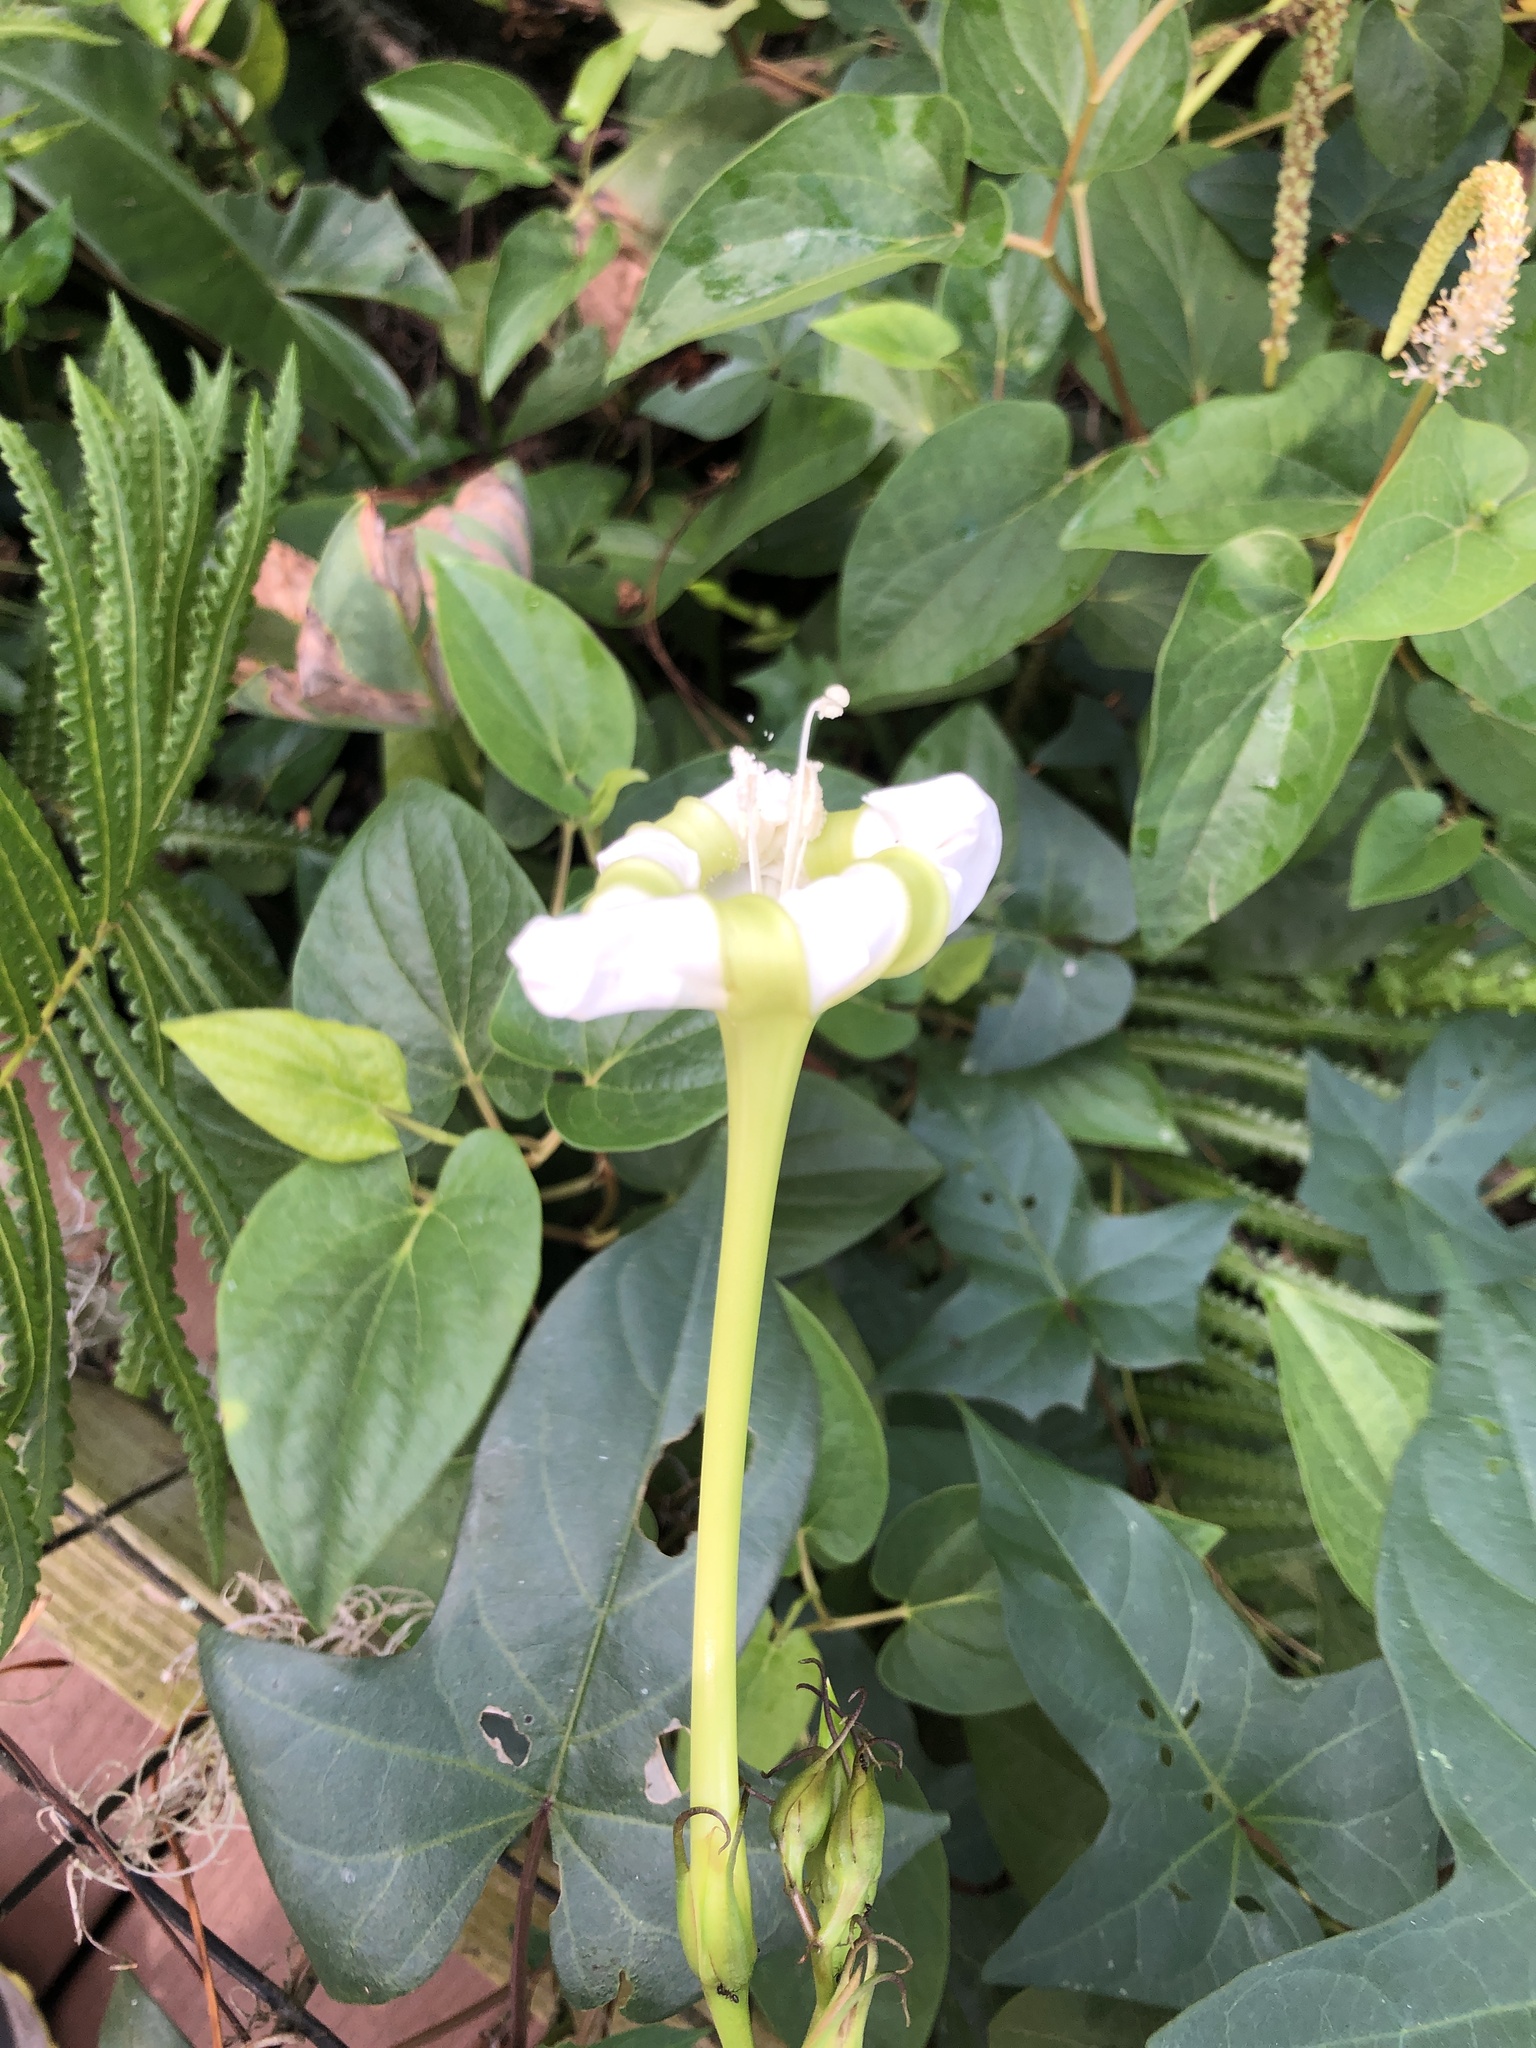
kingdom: Plantae
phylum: Tracheophyta
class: Magnoliopsida
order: Solanales
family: Convolvulaceae
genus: Ipomoea
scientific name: Ipomoea alba
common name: Moonflower
